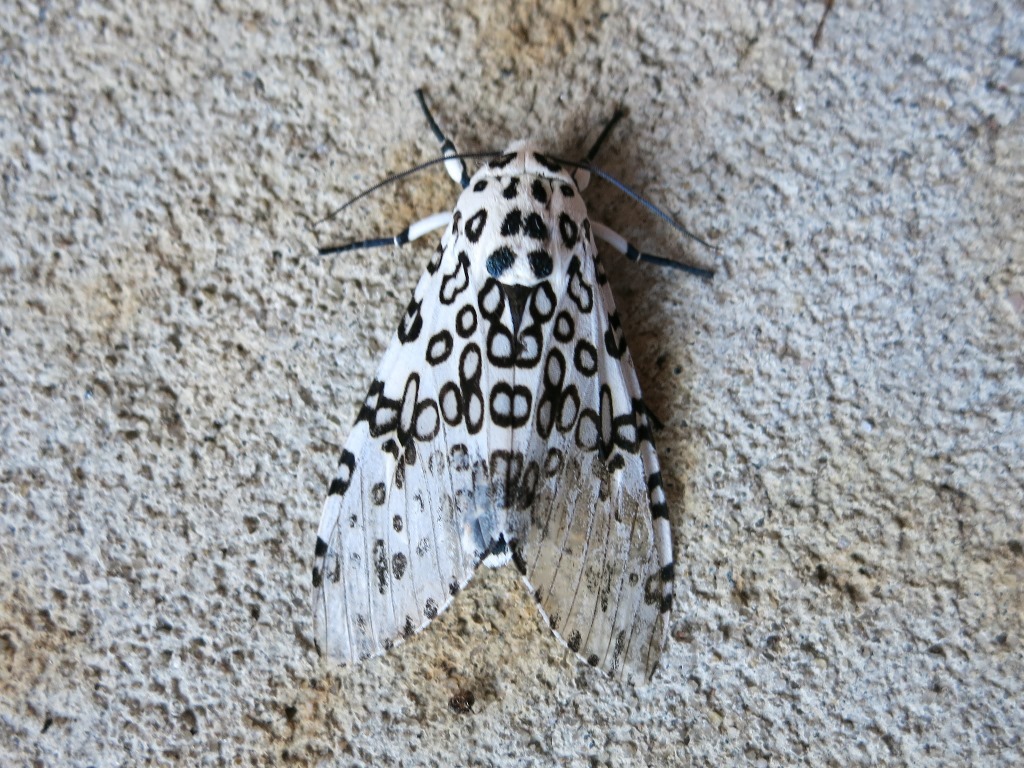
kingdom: Animalia
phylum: Arthropoda
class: Insecta
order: Lepidoptera
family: Erebidae
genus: Hypercompe
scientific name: Hypercompe scribonia
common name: Giant leopard moth
